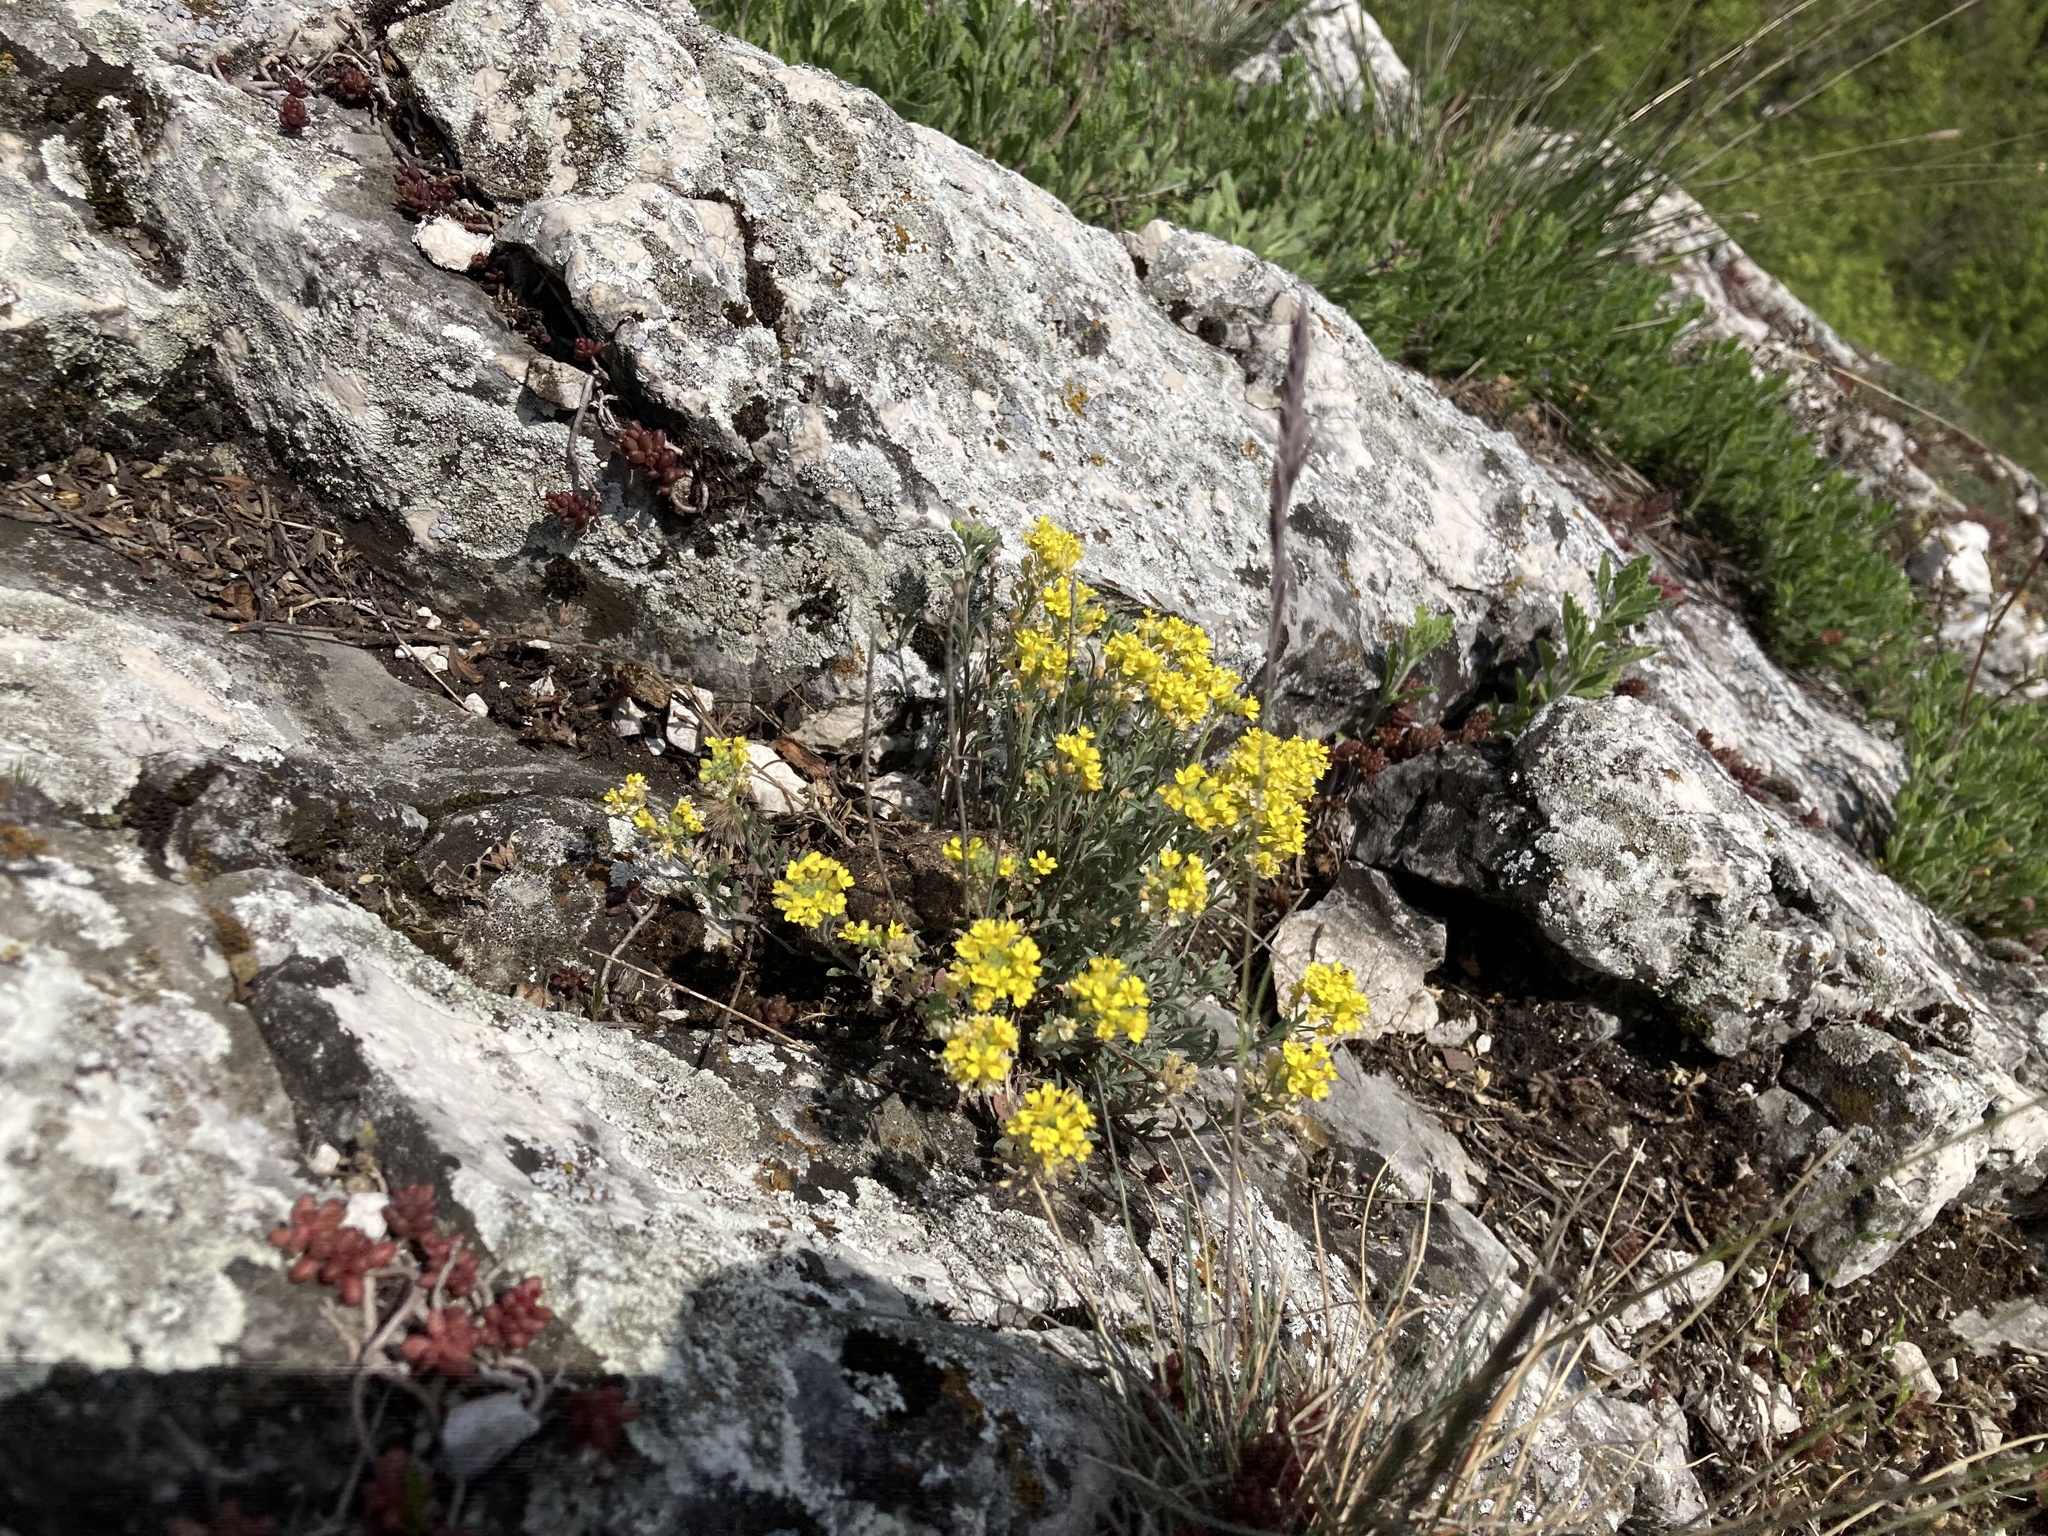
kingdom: Plantae
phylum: Tracheophyta
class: Magnoliopsida
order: Brassicales
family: Brassicaceae
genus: Alyssum
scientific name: Alyssum gmelinii
